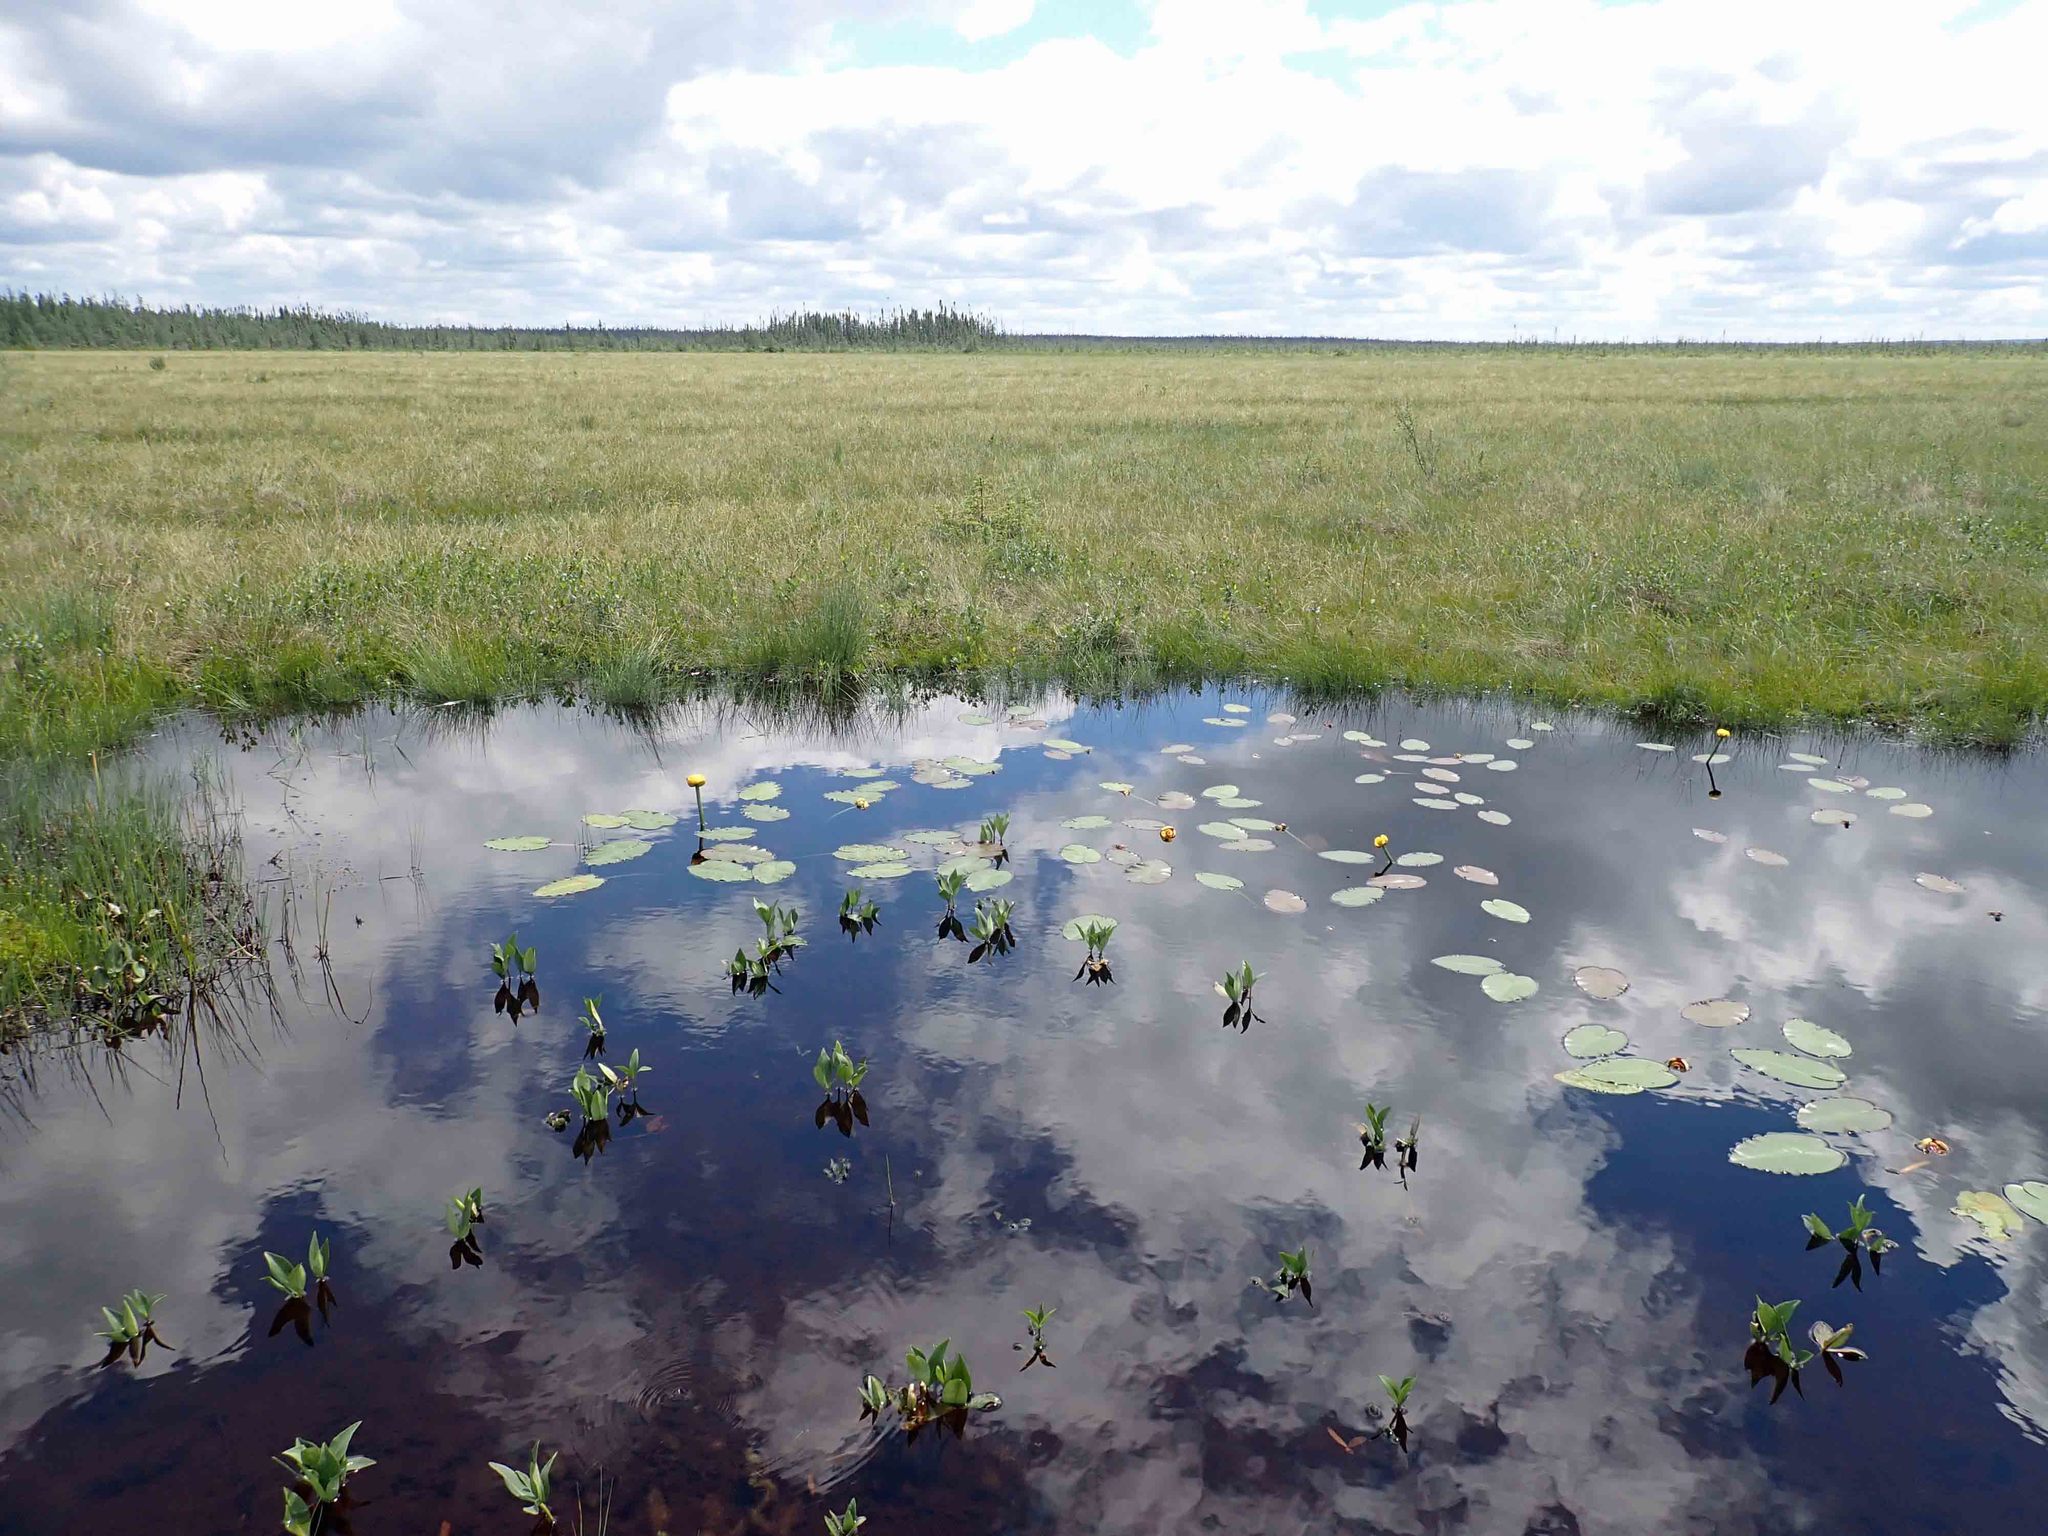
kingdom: Plantae
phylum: Tracheophyta
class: Magnoliopsida
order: Nymphaeales
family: Nymphaeaceae
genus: Nuphar
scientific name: Nuphar variegata
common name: Beaver-root
